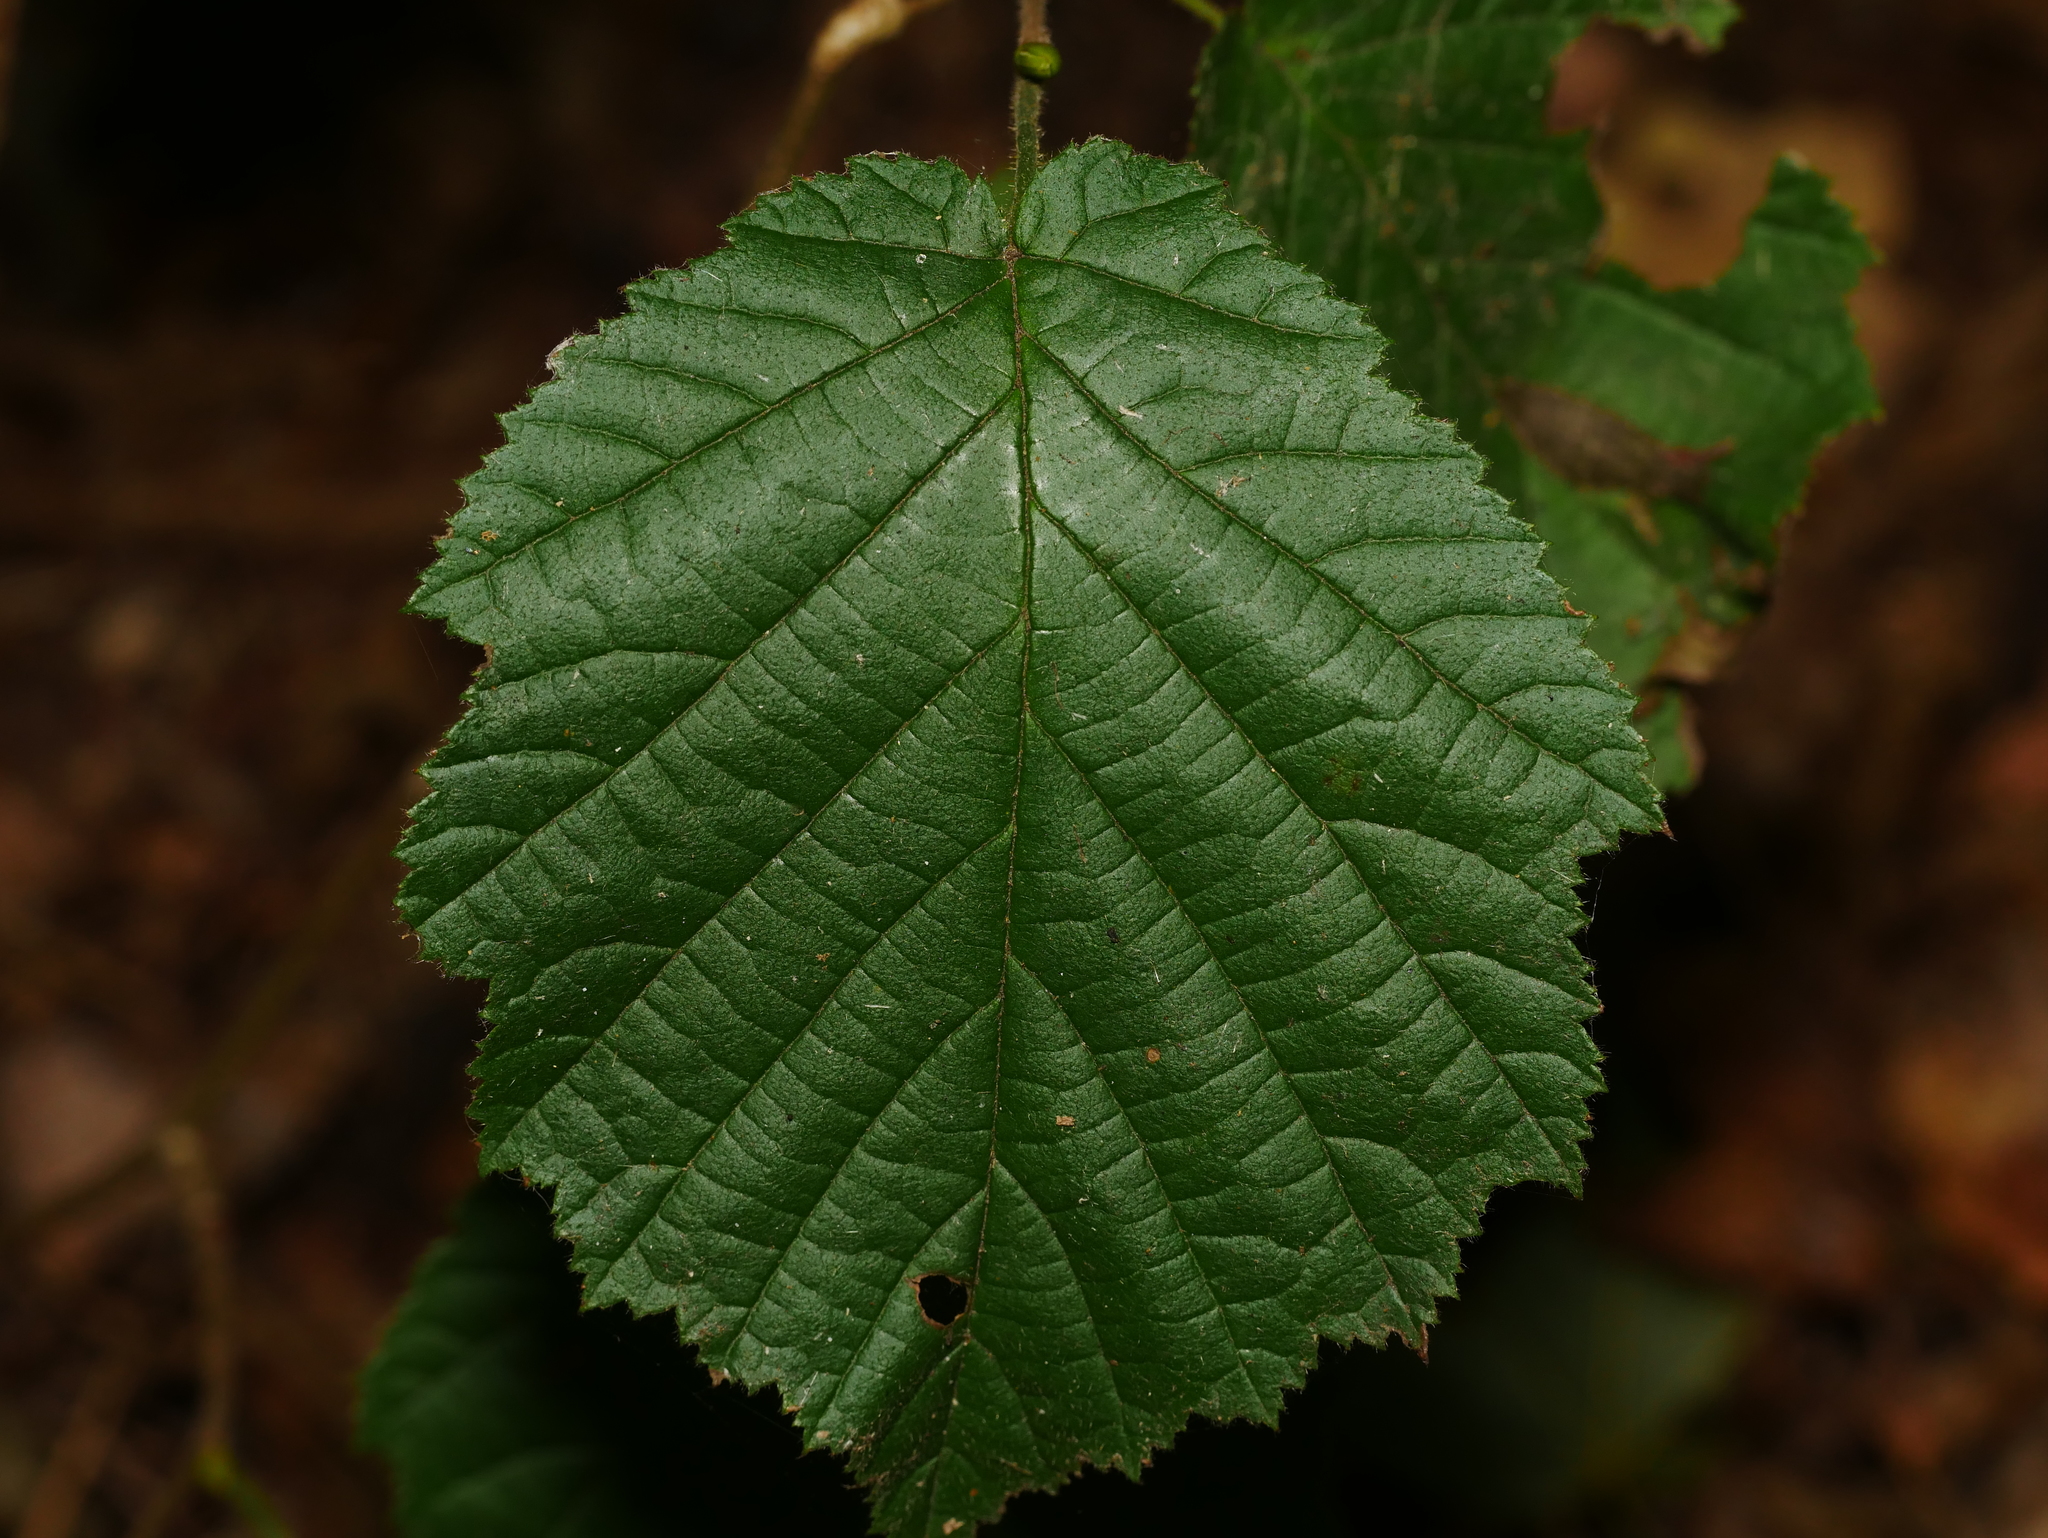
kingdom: Plantae
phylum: Tracheophyta
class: Magnoliopsida
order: Fagales
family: Betulaceae
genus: Corylus
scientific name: Corylus avellana
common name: European hazel
